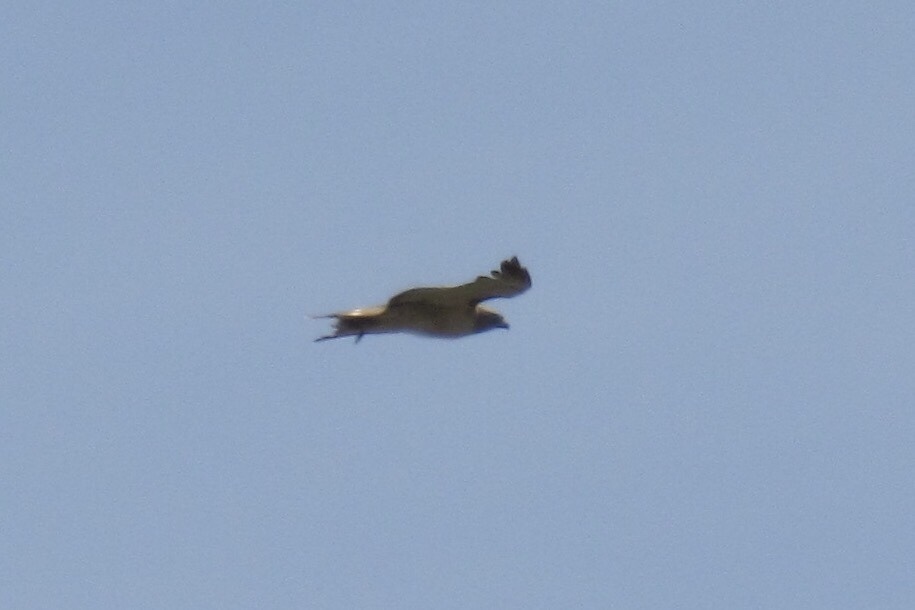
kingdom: Animalia
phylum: Chordata
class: Aves
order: Accipitriformes
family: Accipitridae
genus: Buteo
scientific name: Buteo jamaicensis
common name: Red-tailed hawk
